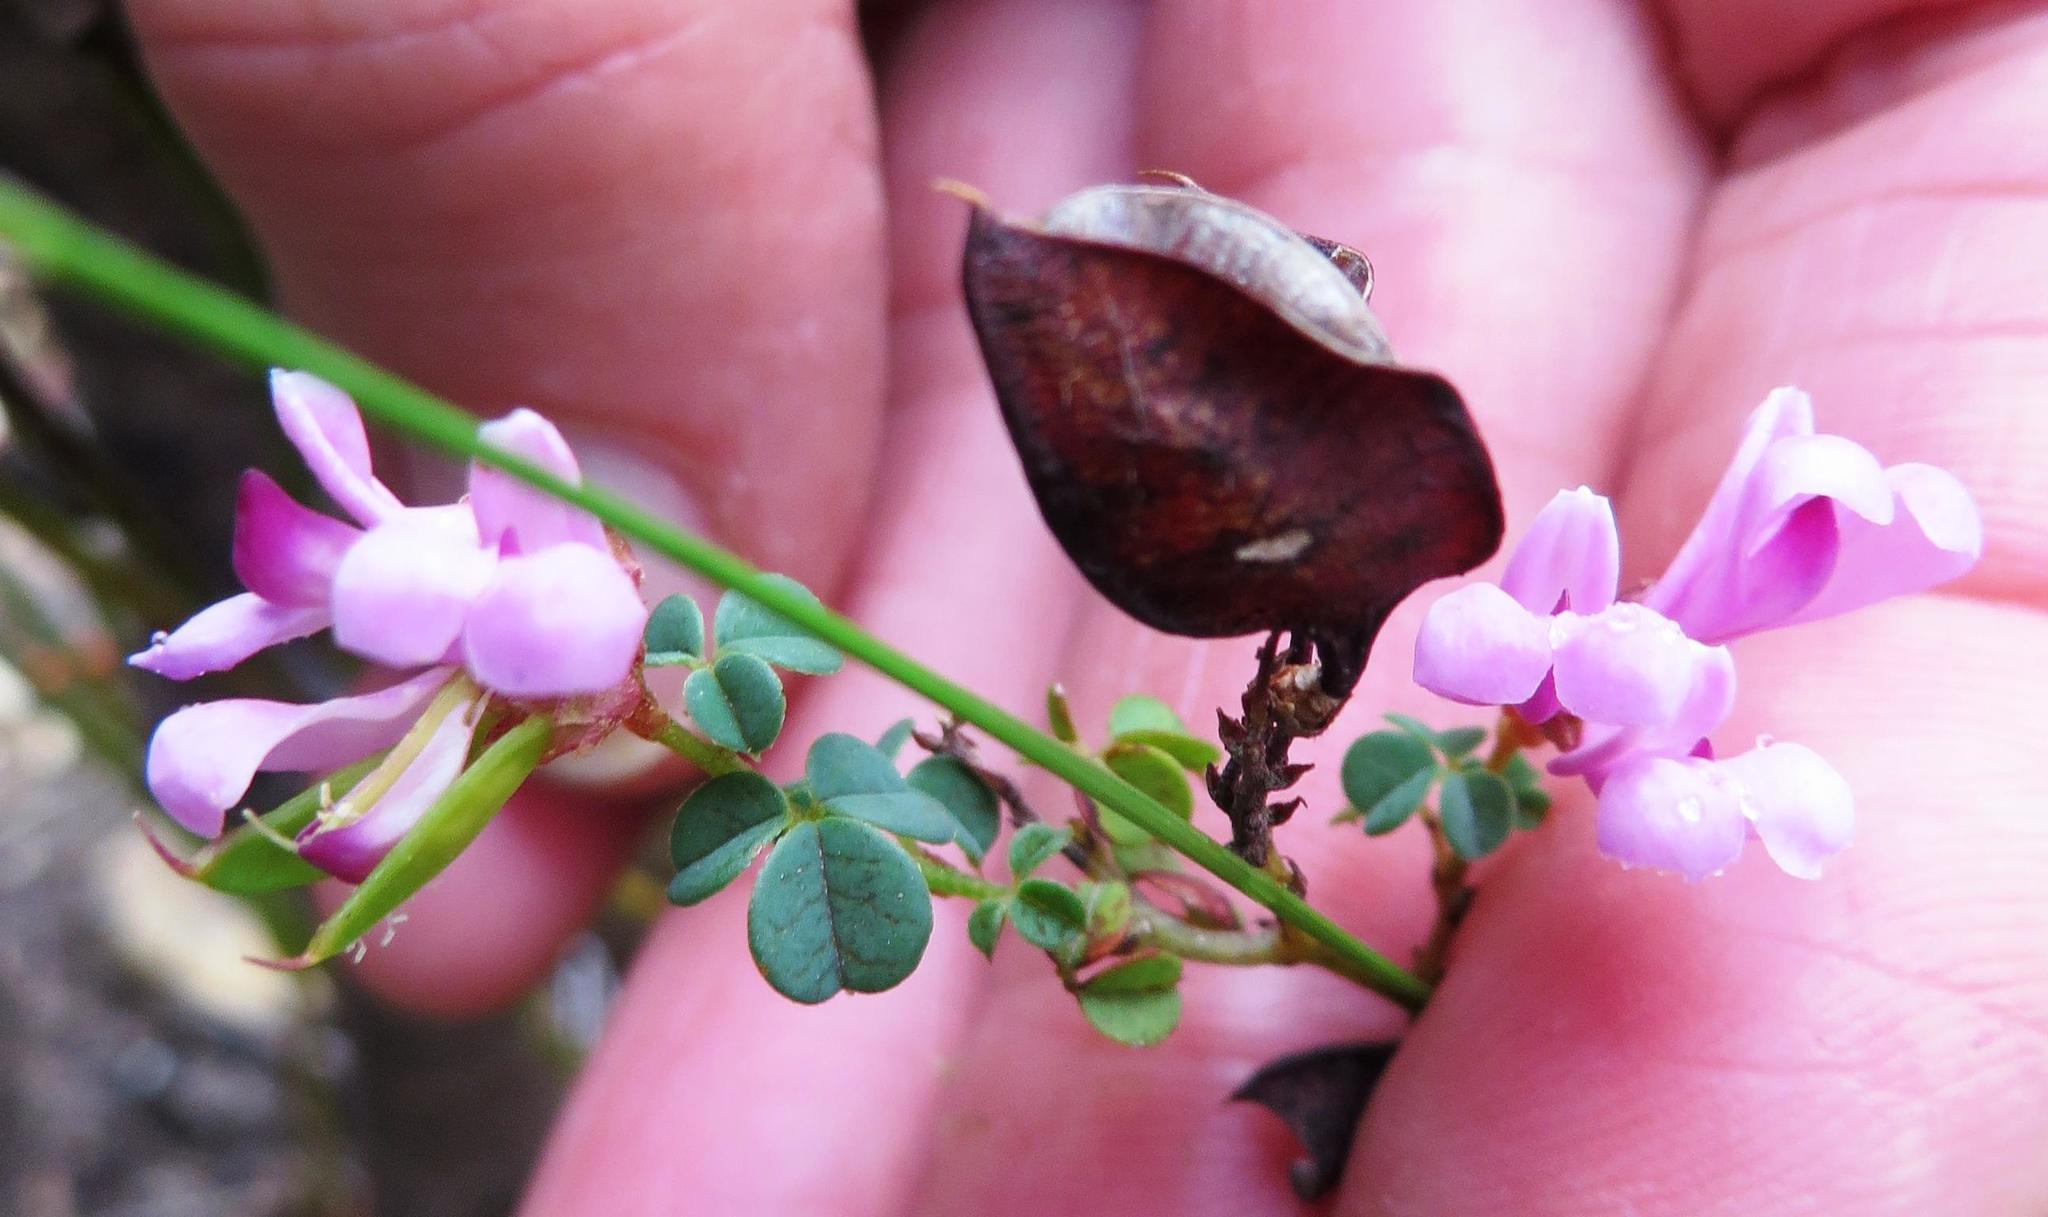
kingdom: Plantae
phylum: Tracheophyta
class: Magnoliopsida
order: Fabales
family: Fabaceae
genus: Hypocalyptus
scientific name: Hypocalyptus oxalidifolius
